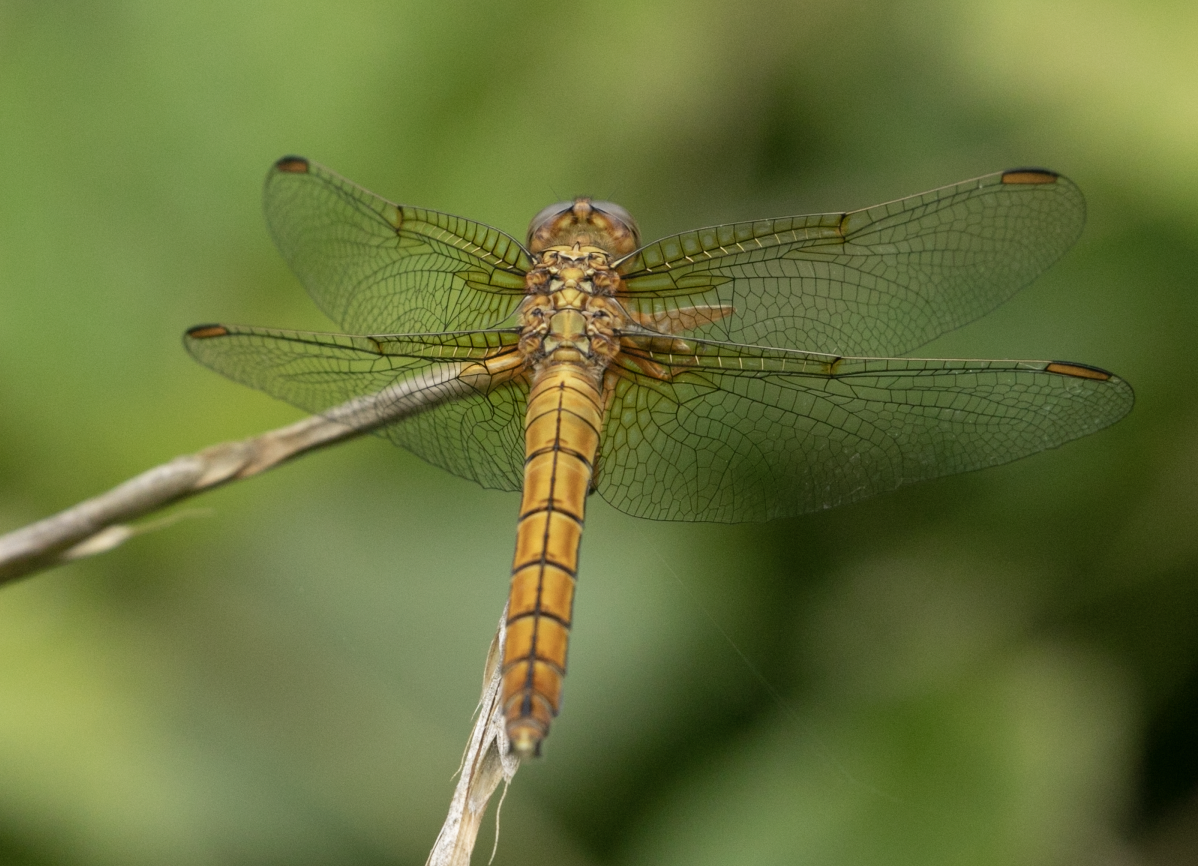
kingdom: Animalia
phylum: Arthropoda
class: Insecta
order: Odonata
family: Libellulidae
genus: Orthetrum
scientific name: Orthetrum coerulescens
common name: Keeled skimmer
